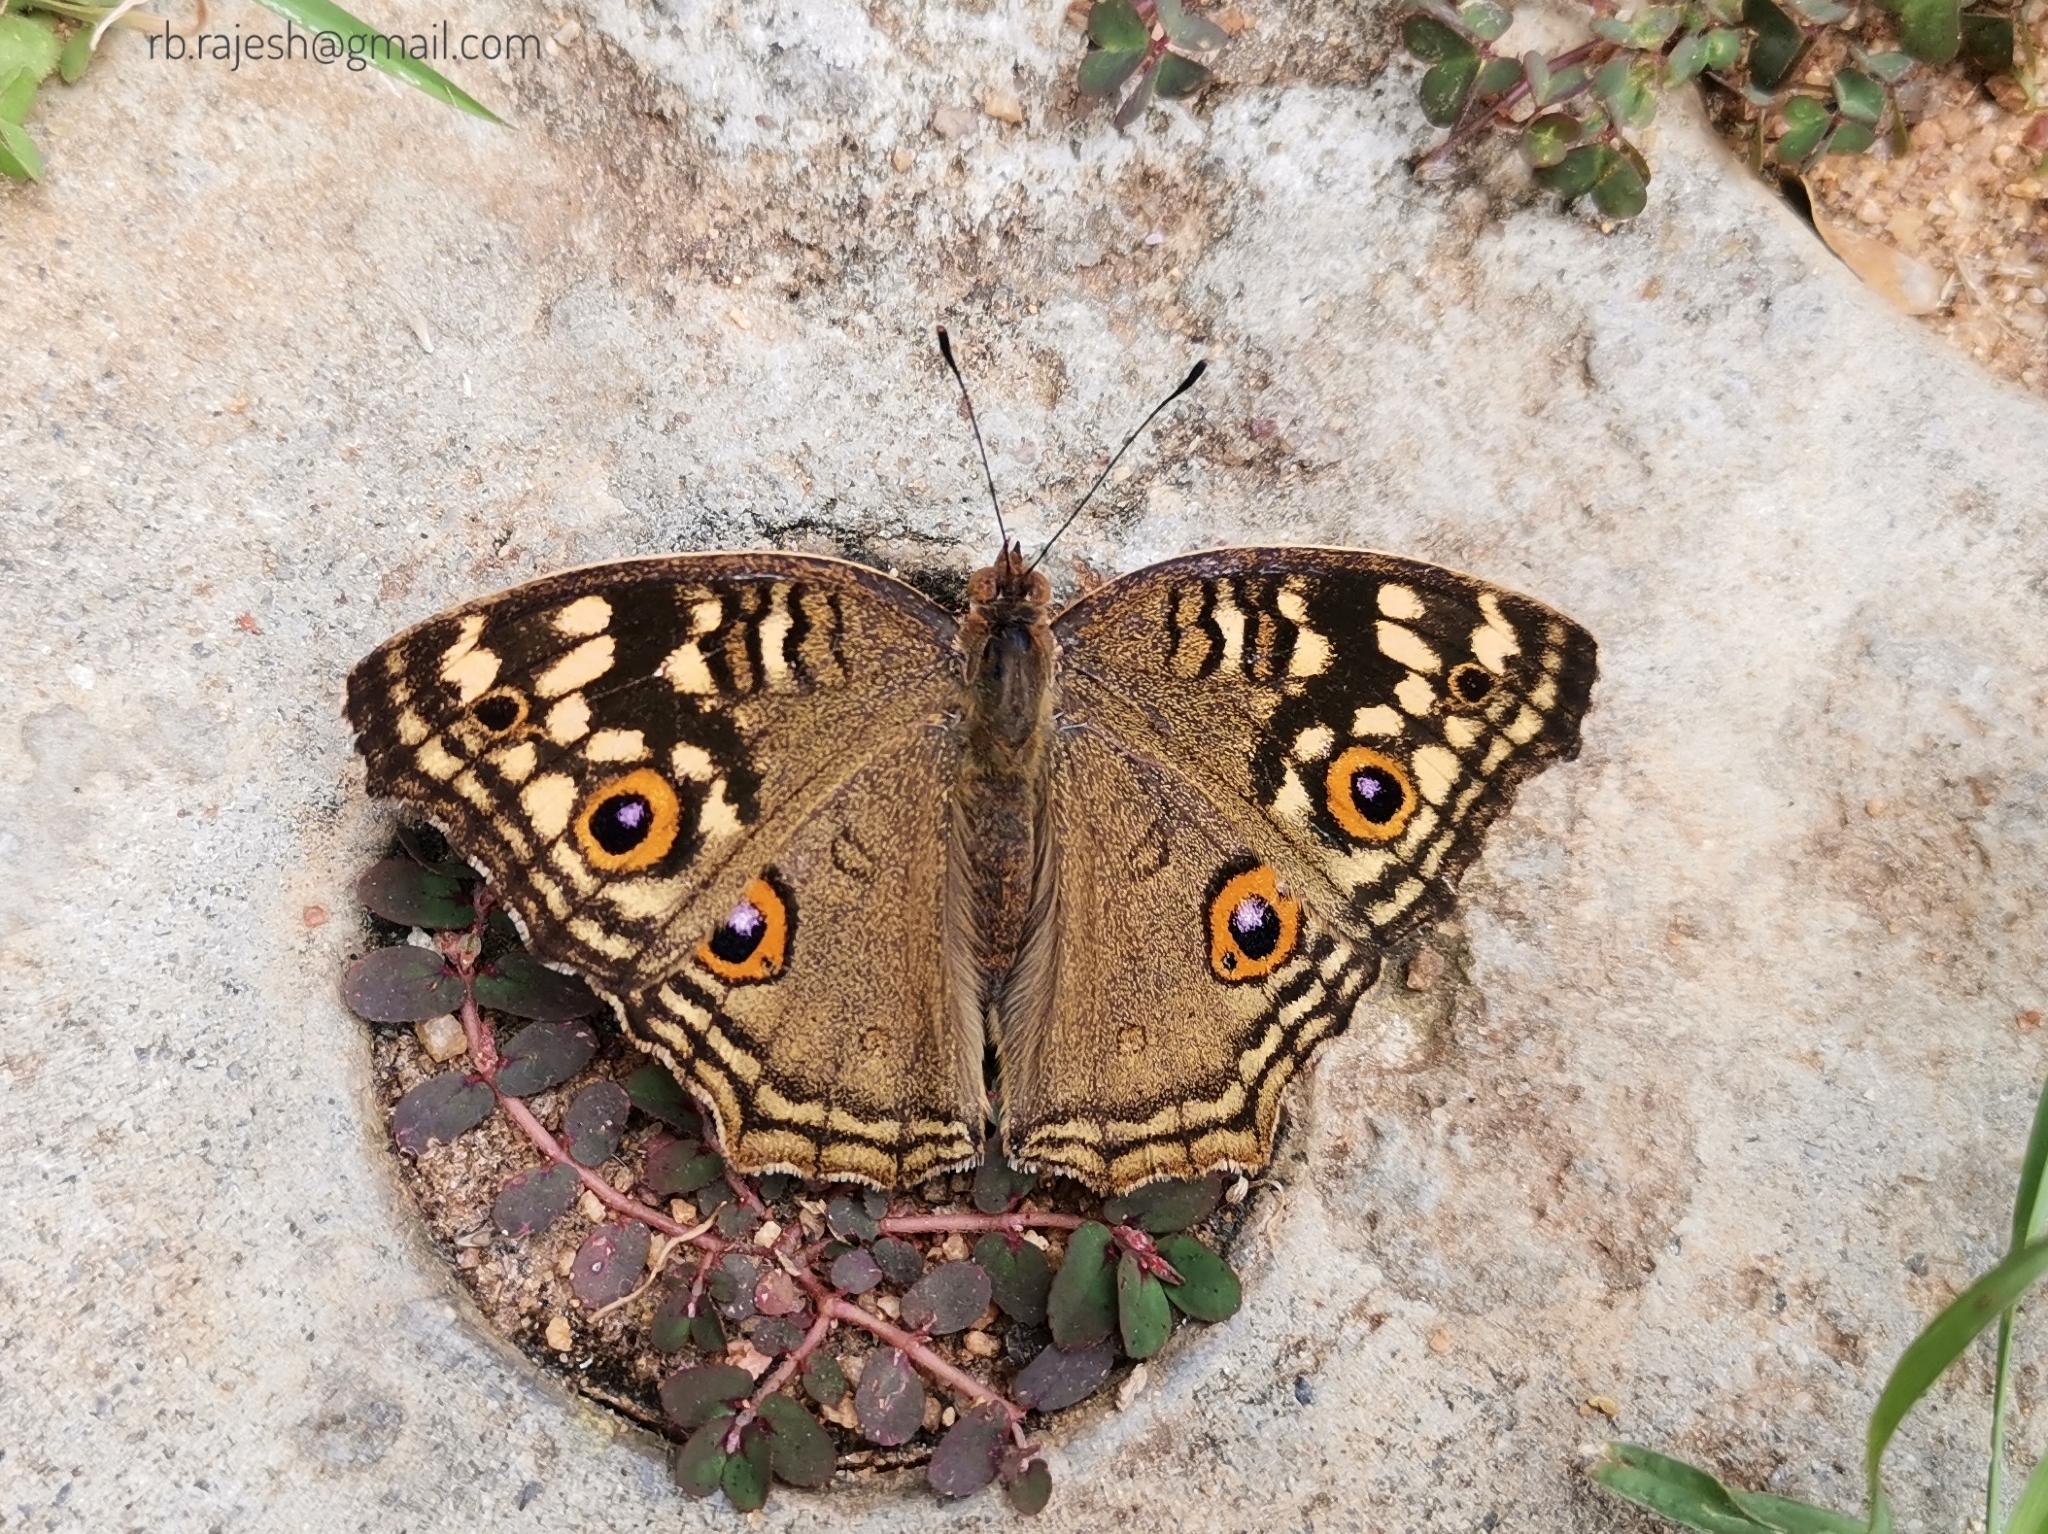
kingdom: Animalia
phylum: Arthropoda
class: Insecta
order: Lepidoptera
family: Nymphalidae
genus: Junonia
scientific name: Junonia lemonias
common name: Lemon pansy
